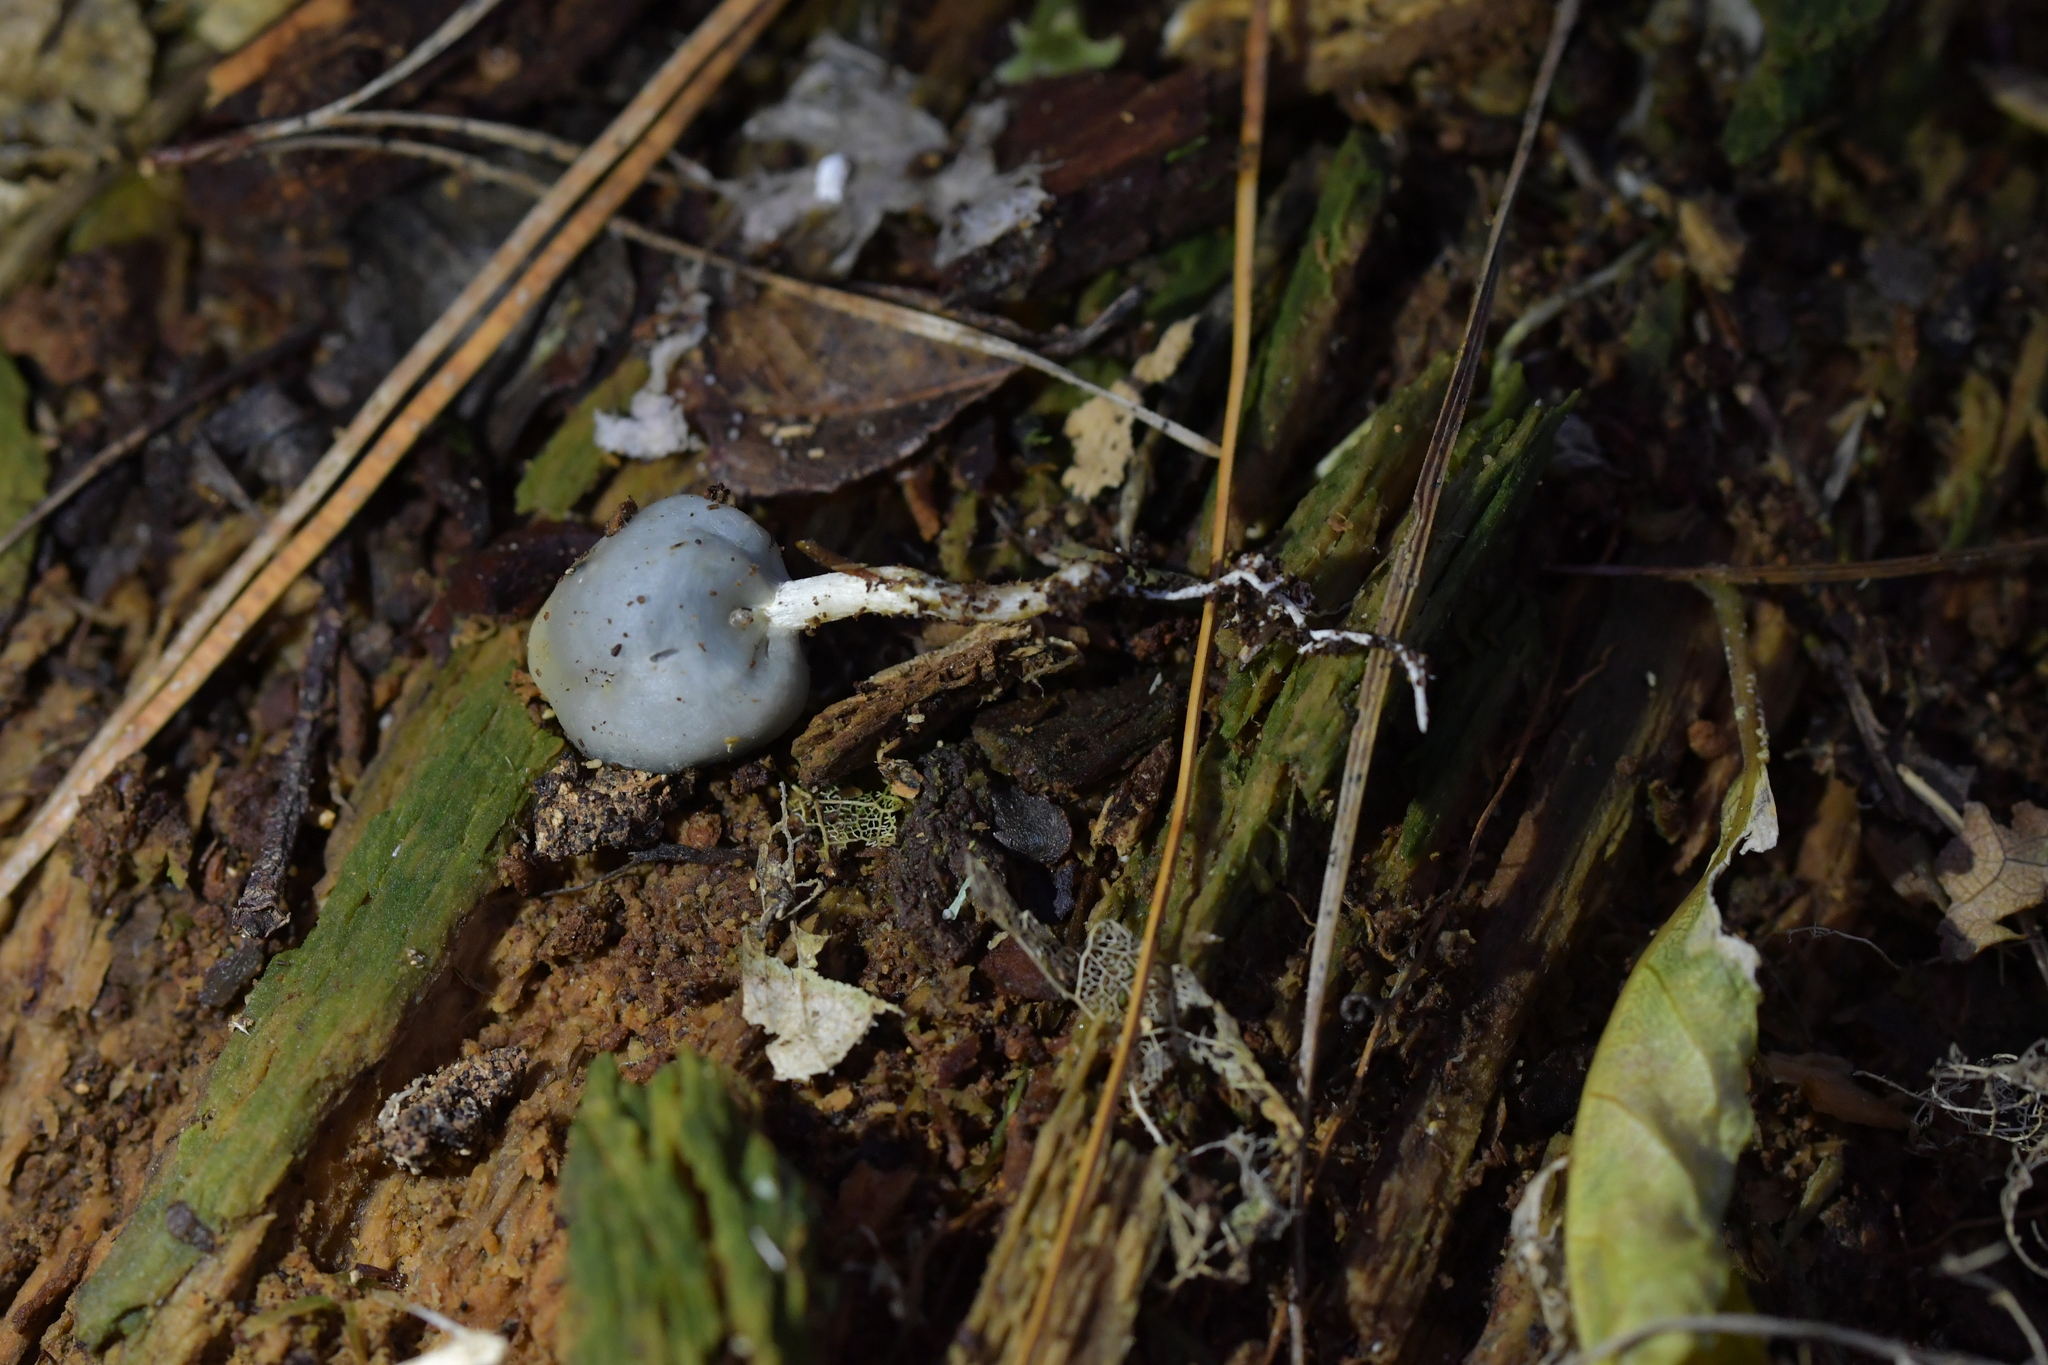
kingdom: Fungi
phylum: Basidiomycota
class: Agaricomycetes
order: Agaricales
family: Hymenogastraceae
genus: Psilocybe
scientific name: Psilocybe weraroa
